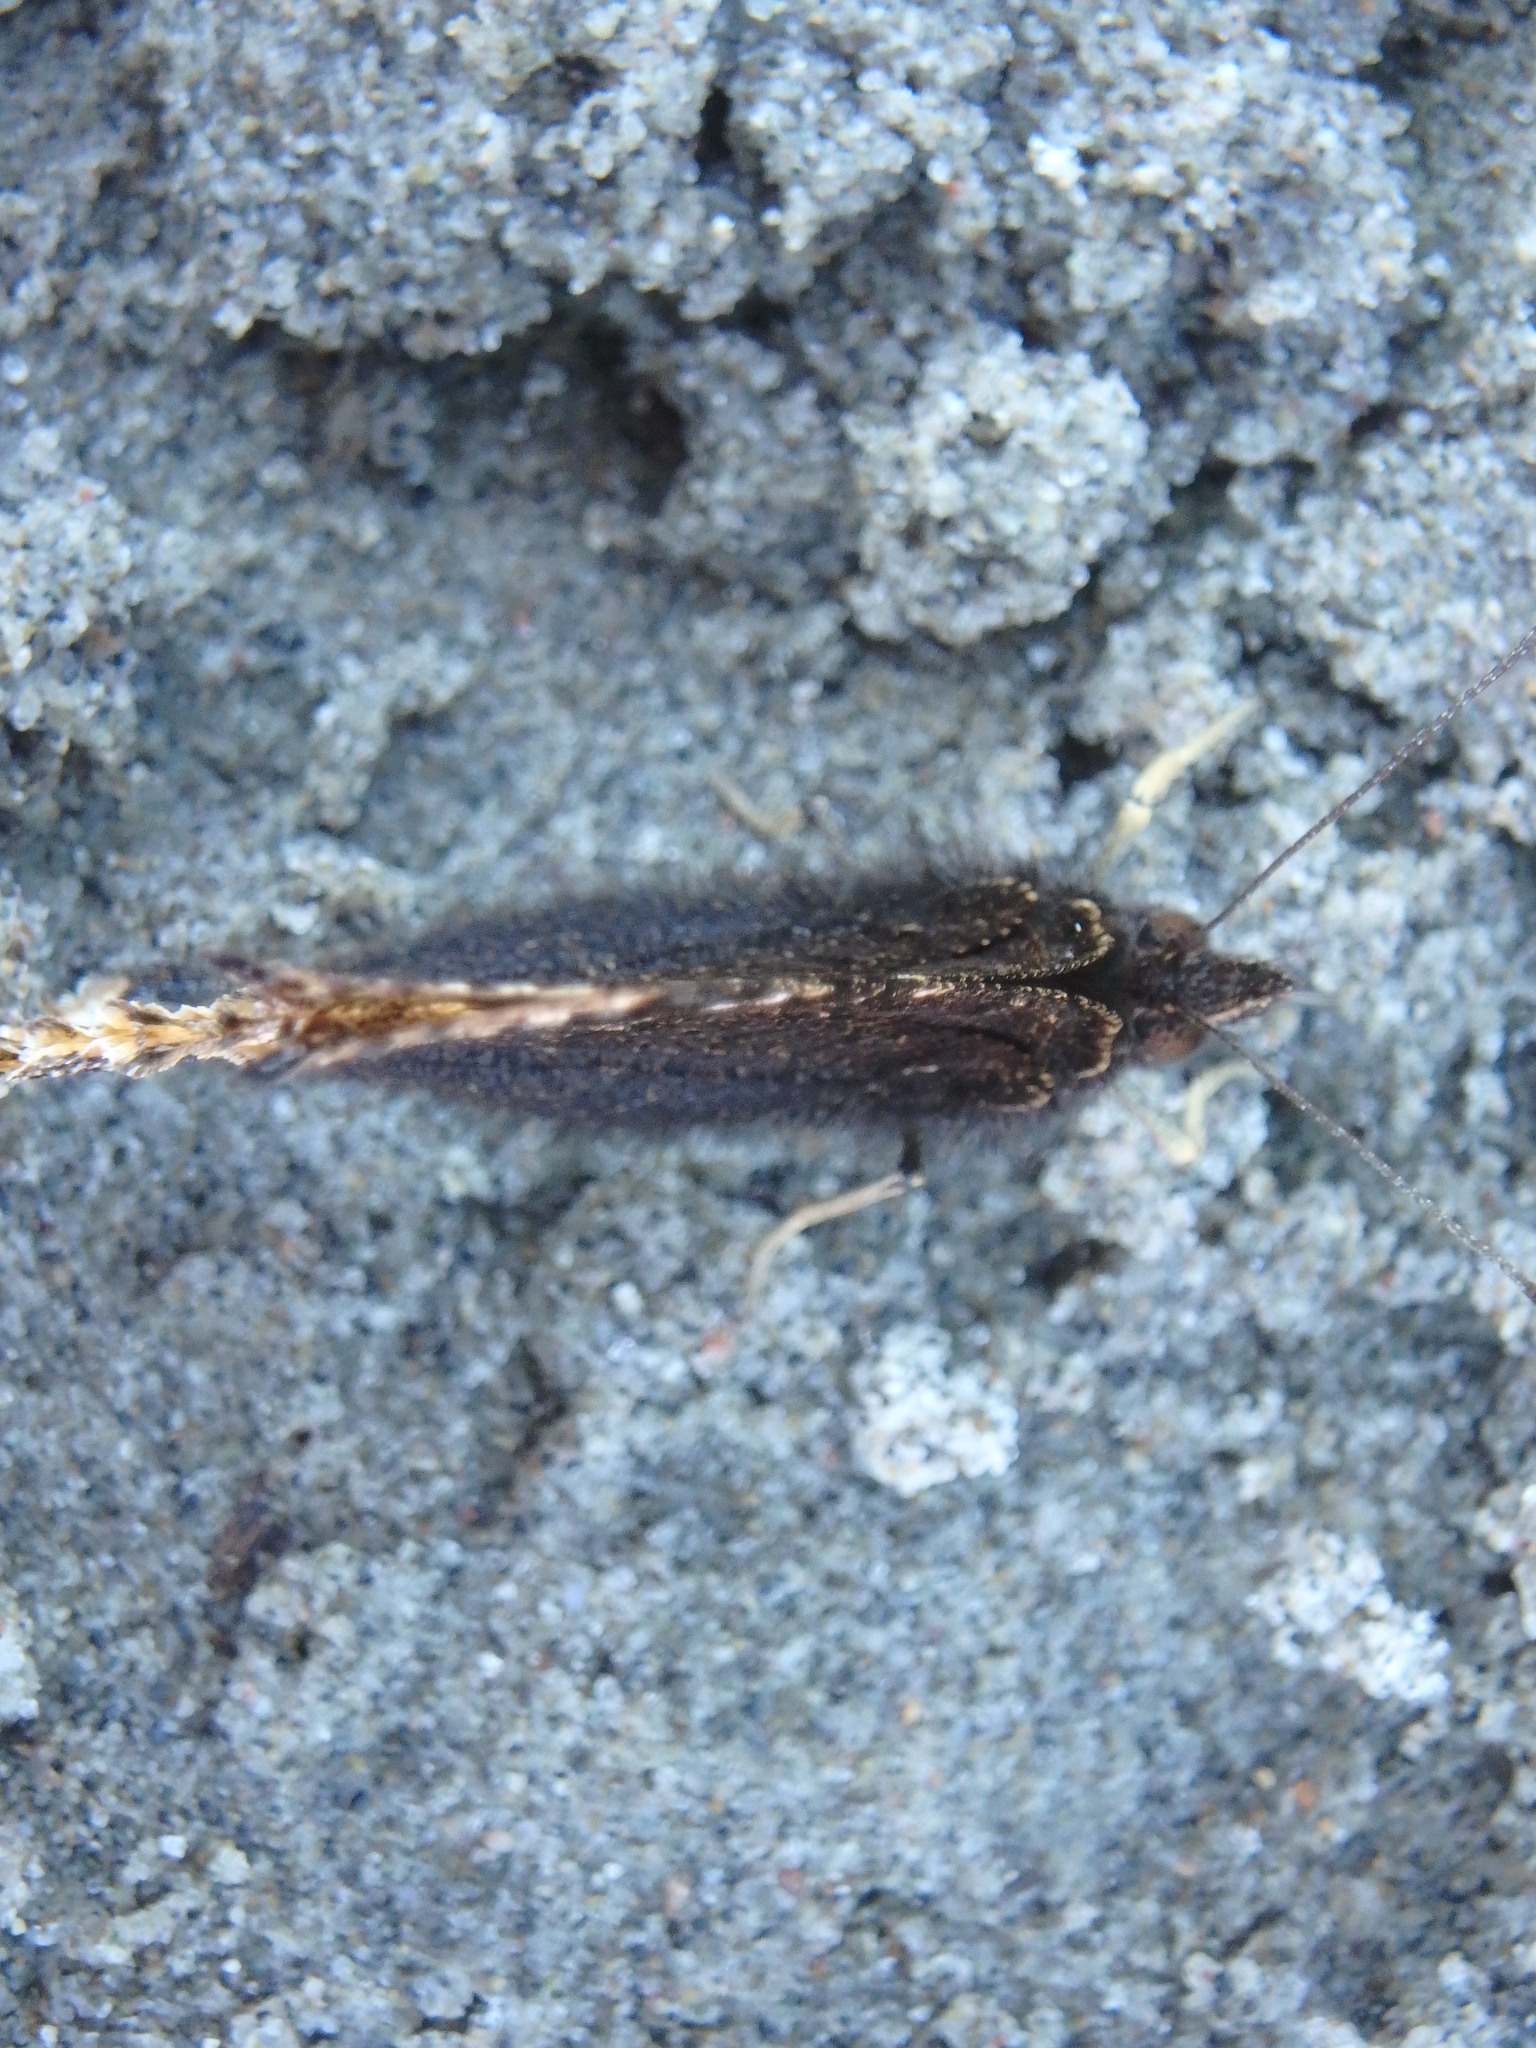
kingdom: Animalia
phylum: Arthropoda
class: Insecta
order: Lepidoptera
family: Nymphalidae
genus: Nymphalis
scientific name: Nymphalis antiopa
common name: Camberwell beauty
